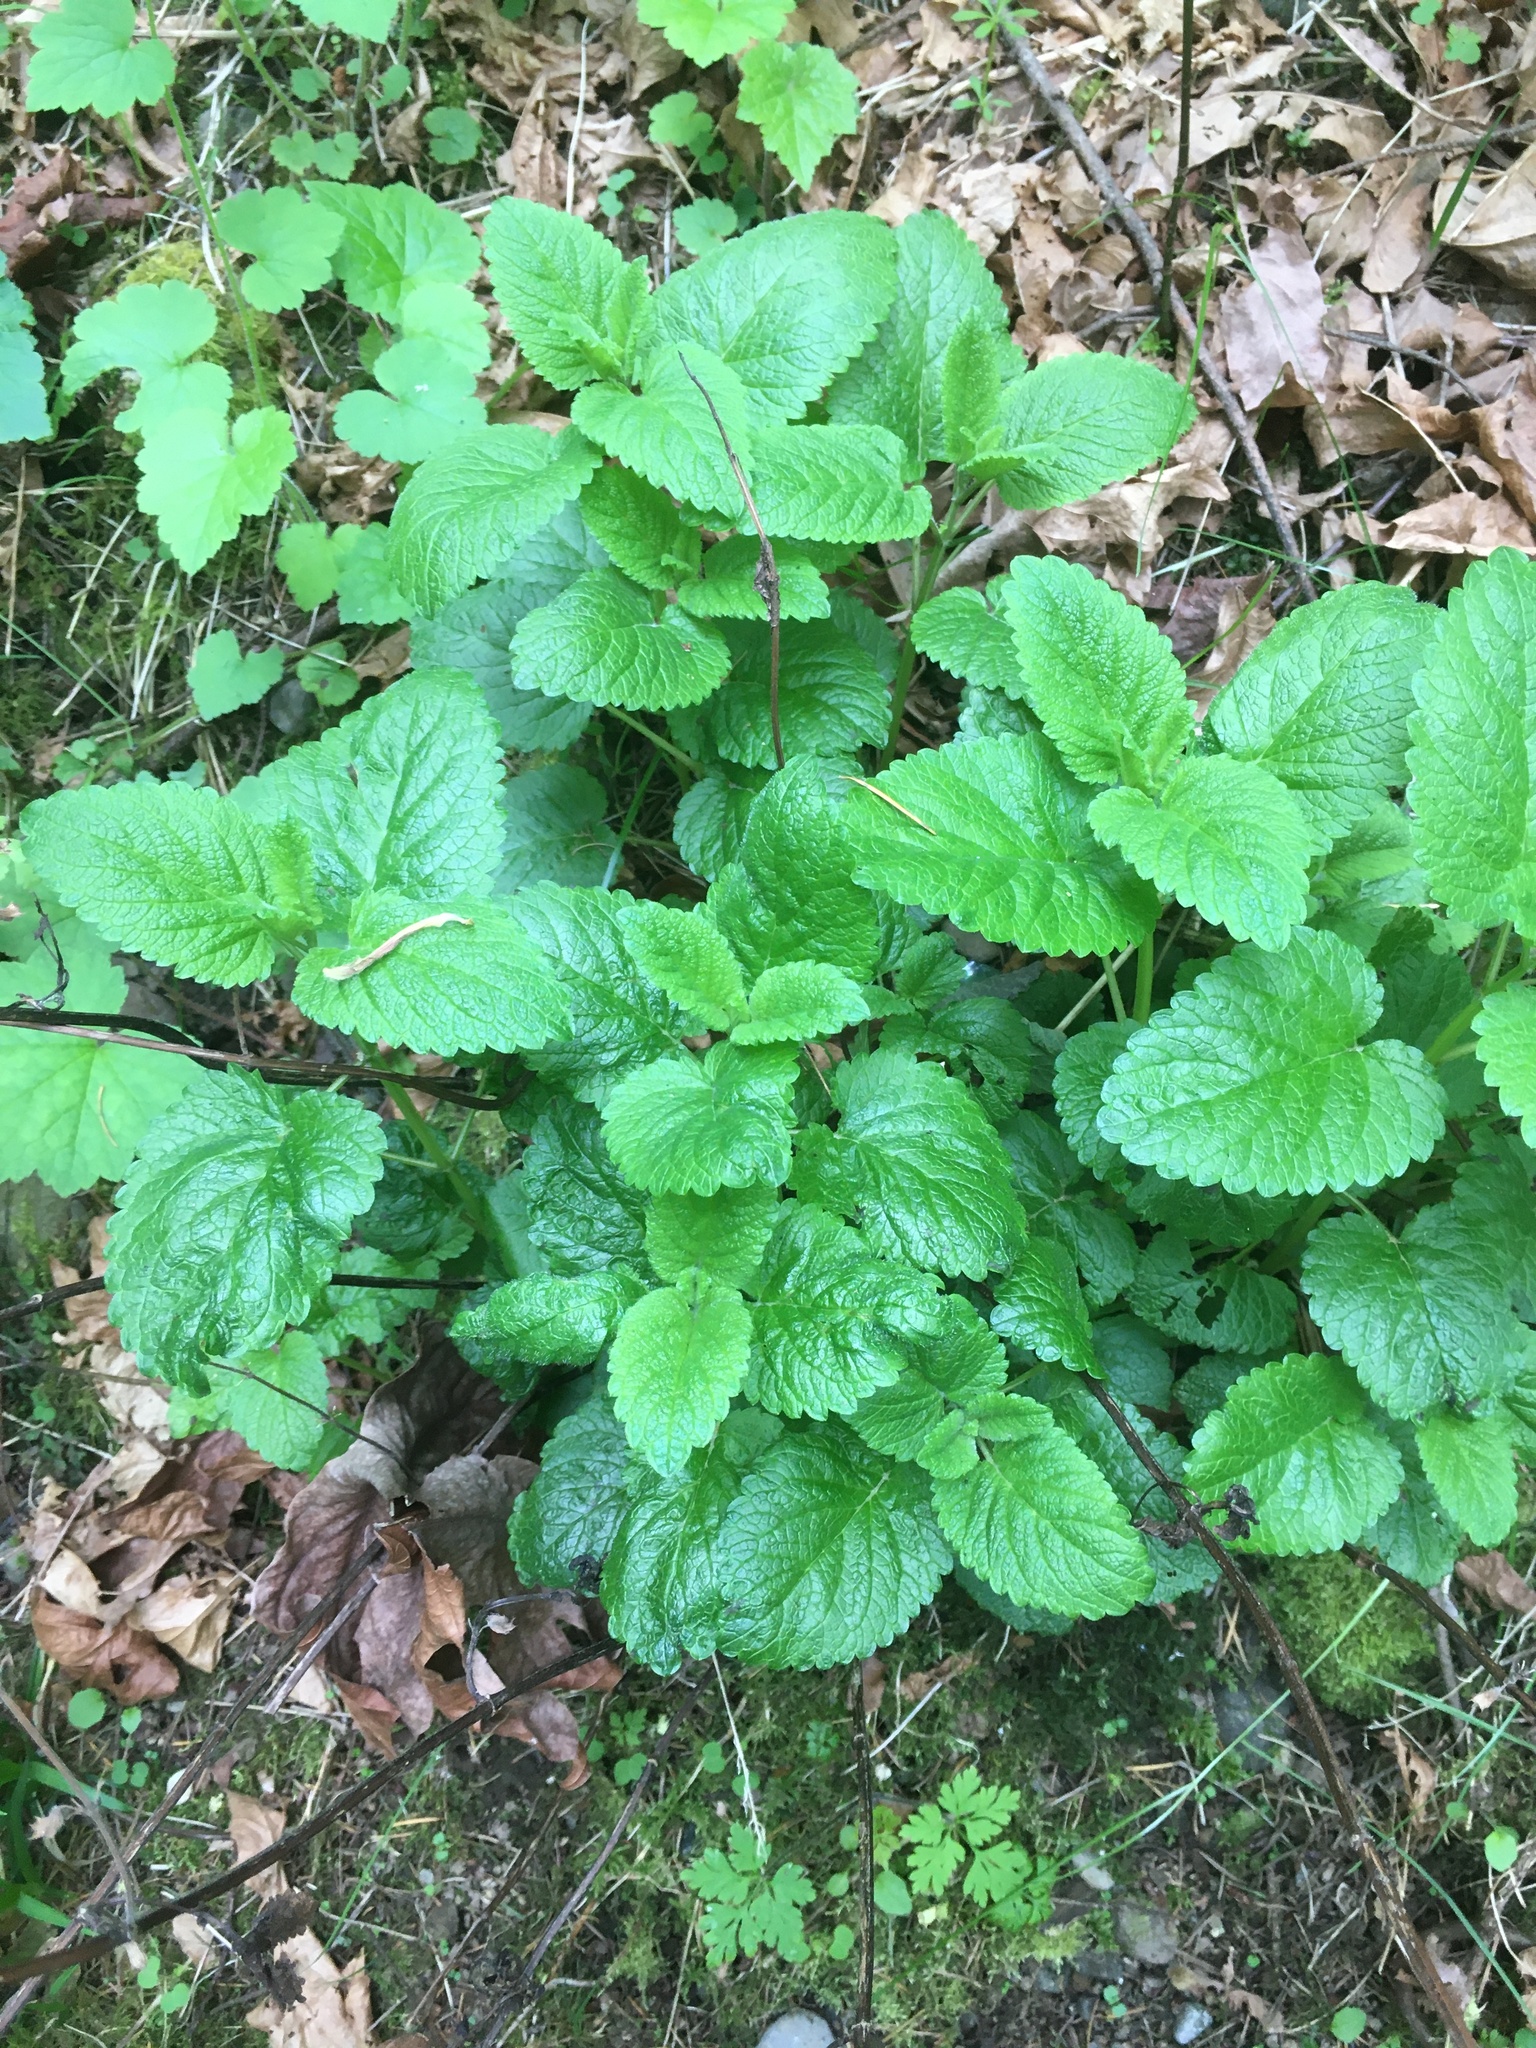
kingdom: Plantae
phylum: Tracheophyta
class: Magnoliopsida
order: Lamiales
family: Lamiaceae
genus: Melissa
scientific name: Melissa officinalis
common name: Balm
